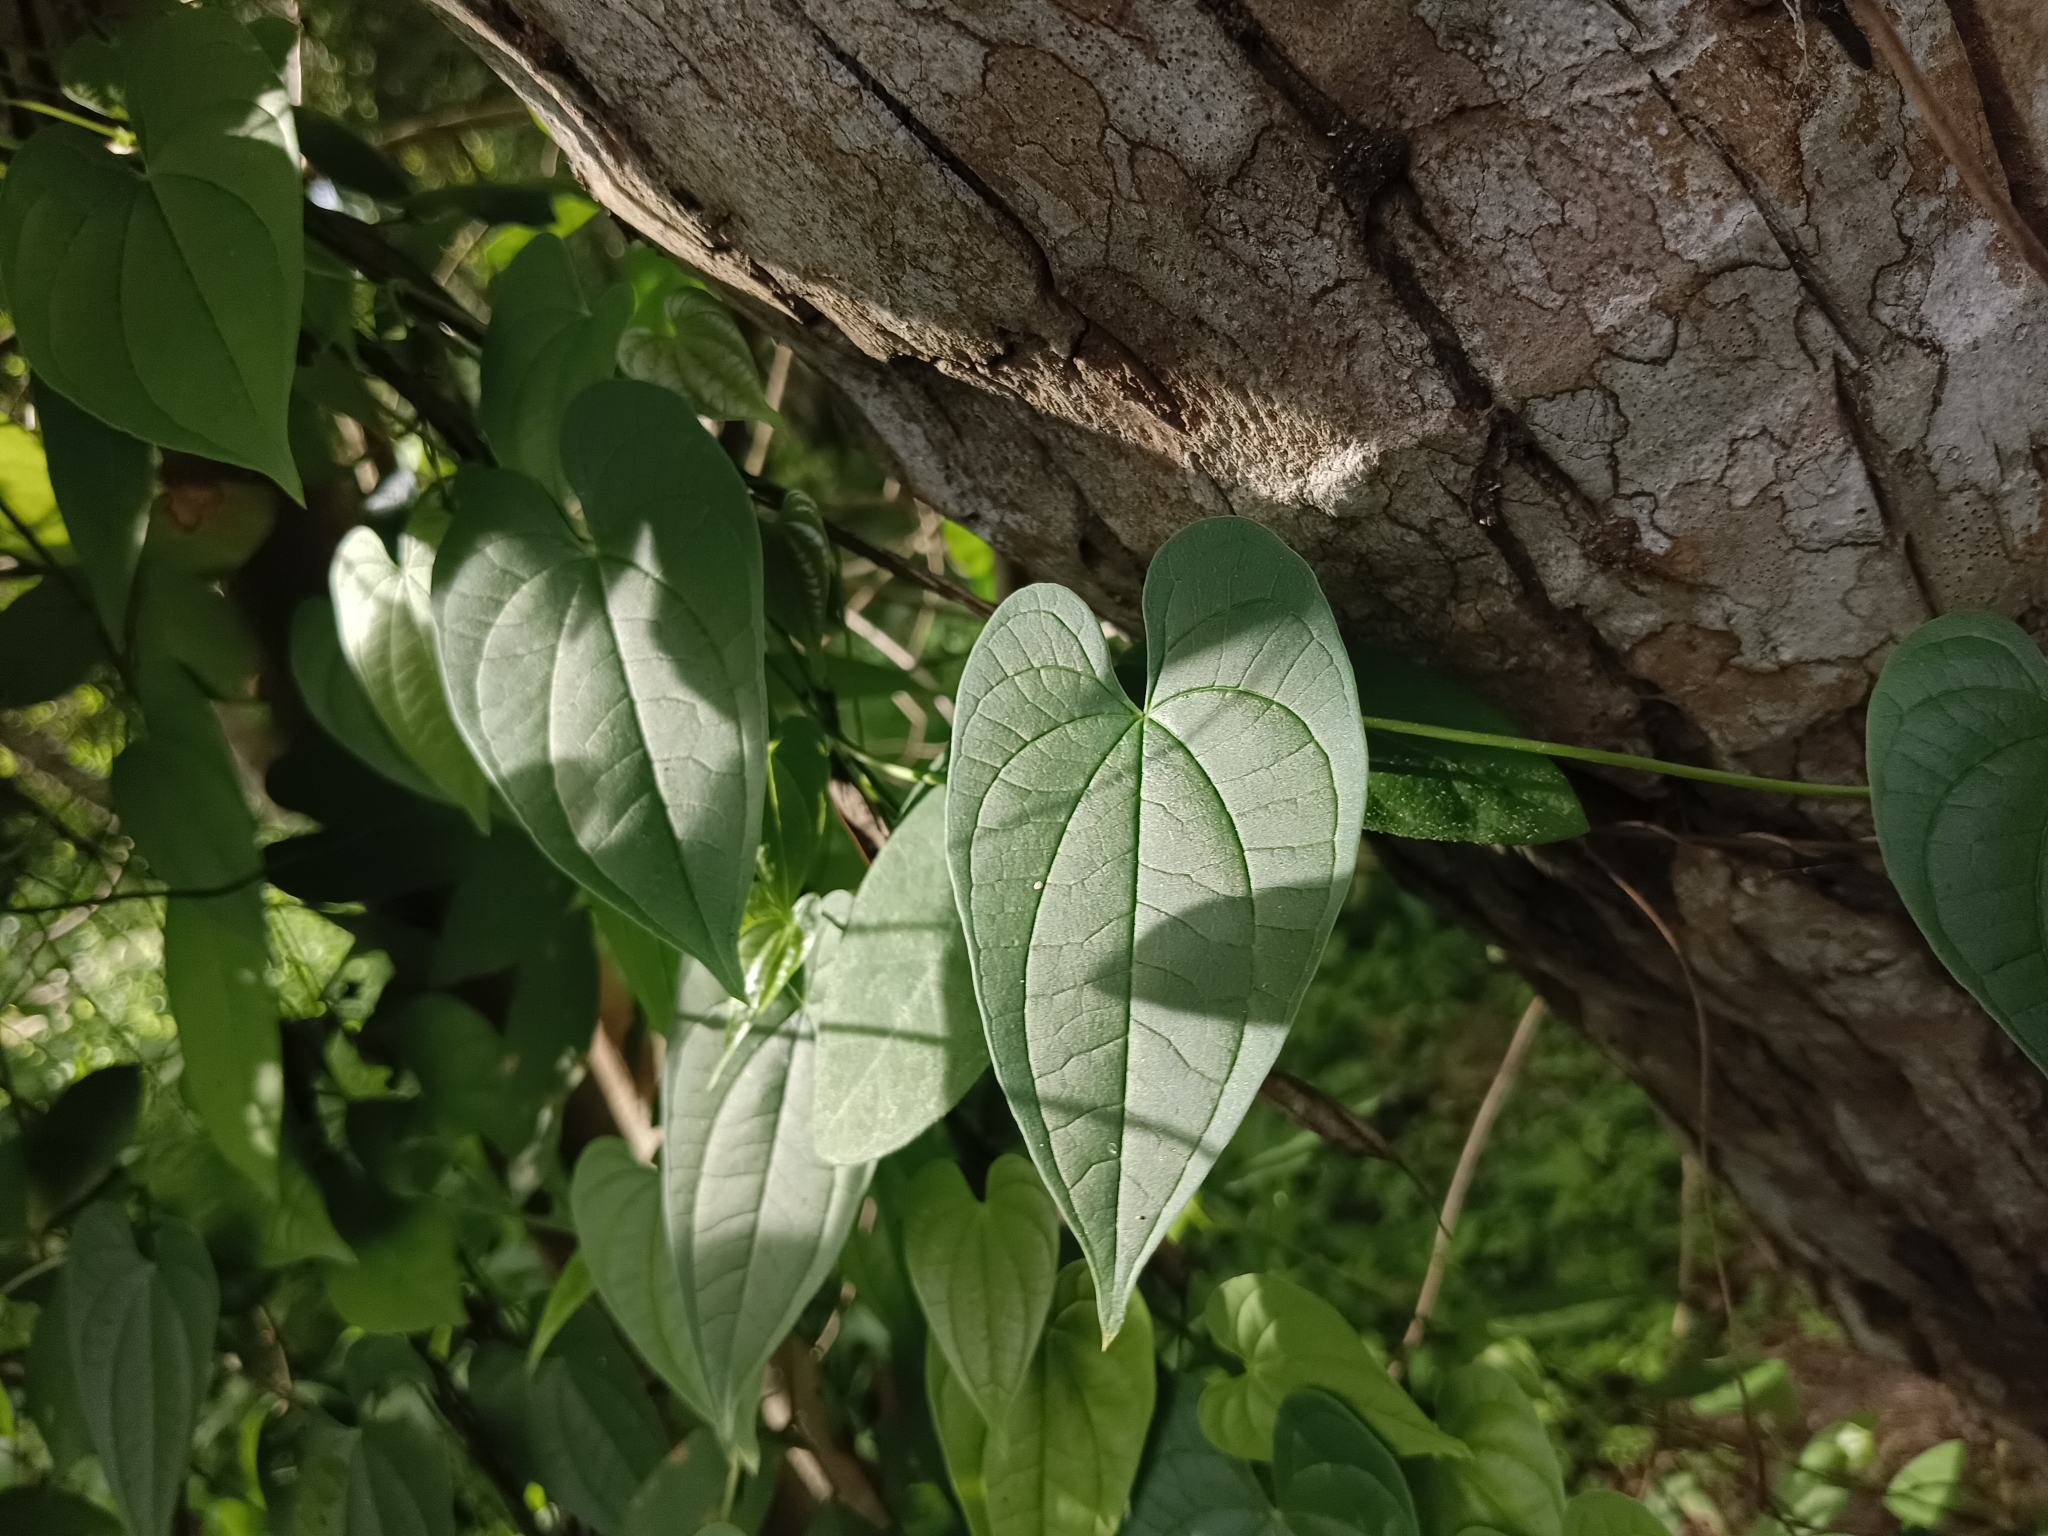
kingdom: Plantae
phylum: Tracheophyta
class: Liliopsida
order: Dioscoreales
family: Dioscoreaceae
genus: Dioscorea
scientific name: Dioscorea bulbifera
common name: Air yam
